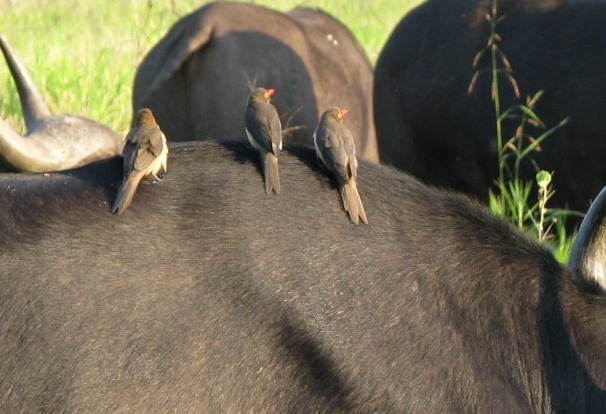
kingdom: Animalia
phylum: Chordata
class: Aves
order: Passeriformes
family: Buphagidae
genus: Buphagus
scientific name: Buphagus erythrorhynchus
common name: Red-billed oxpecker
